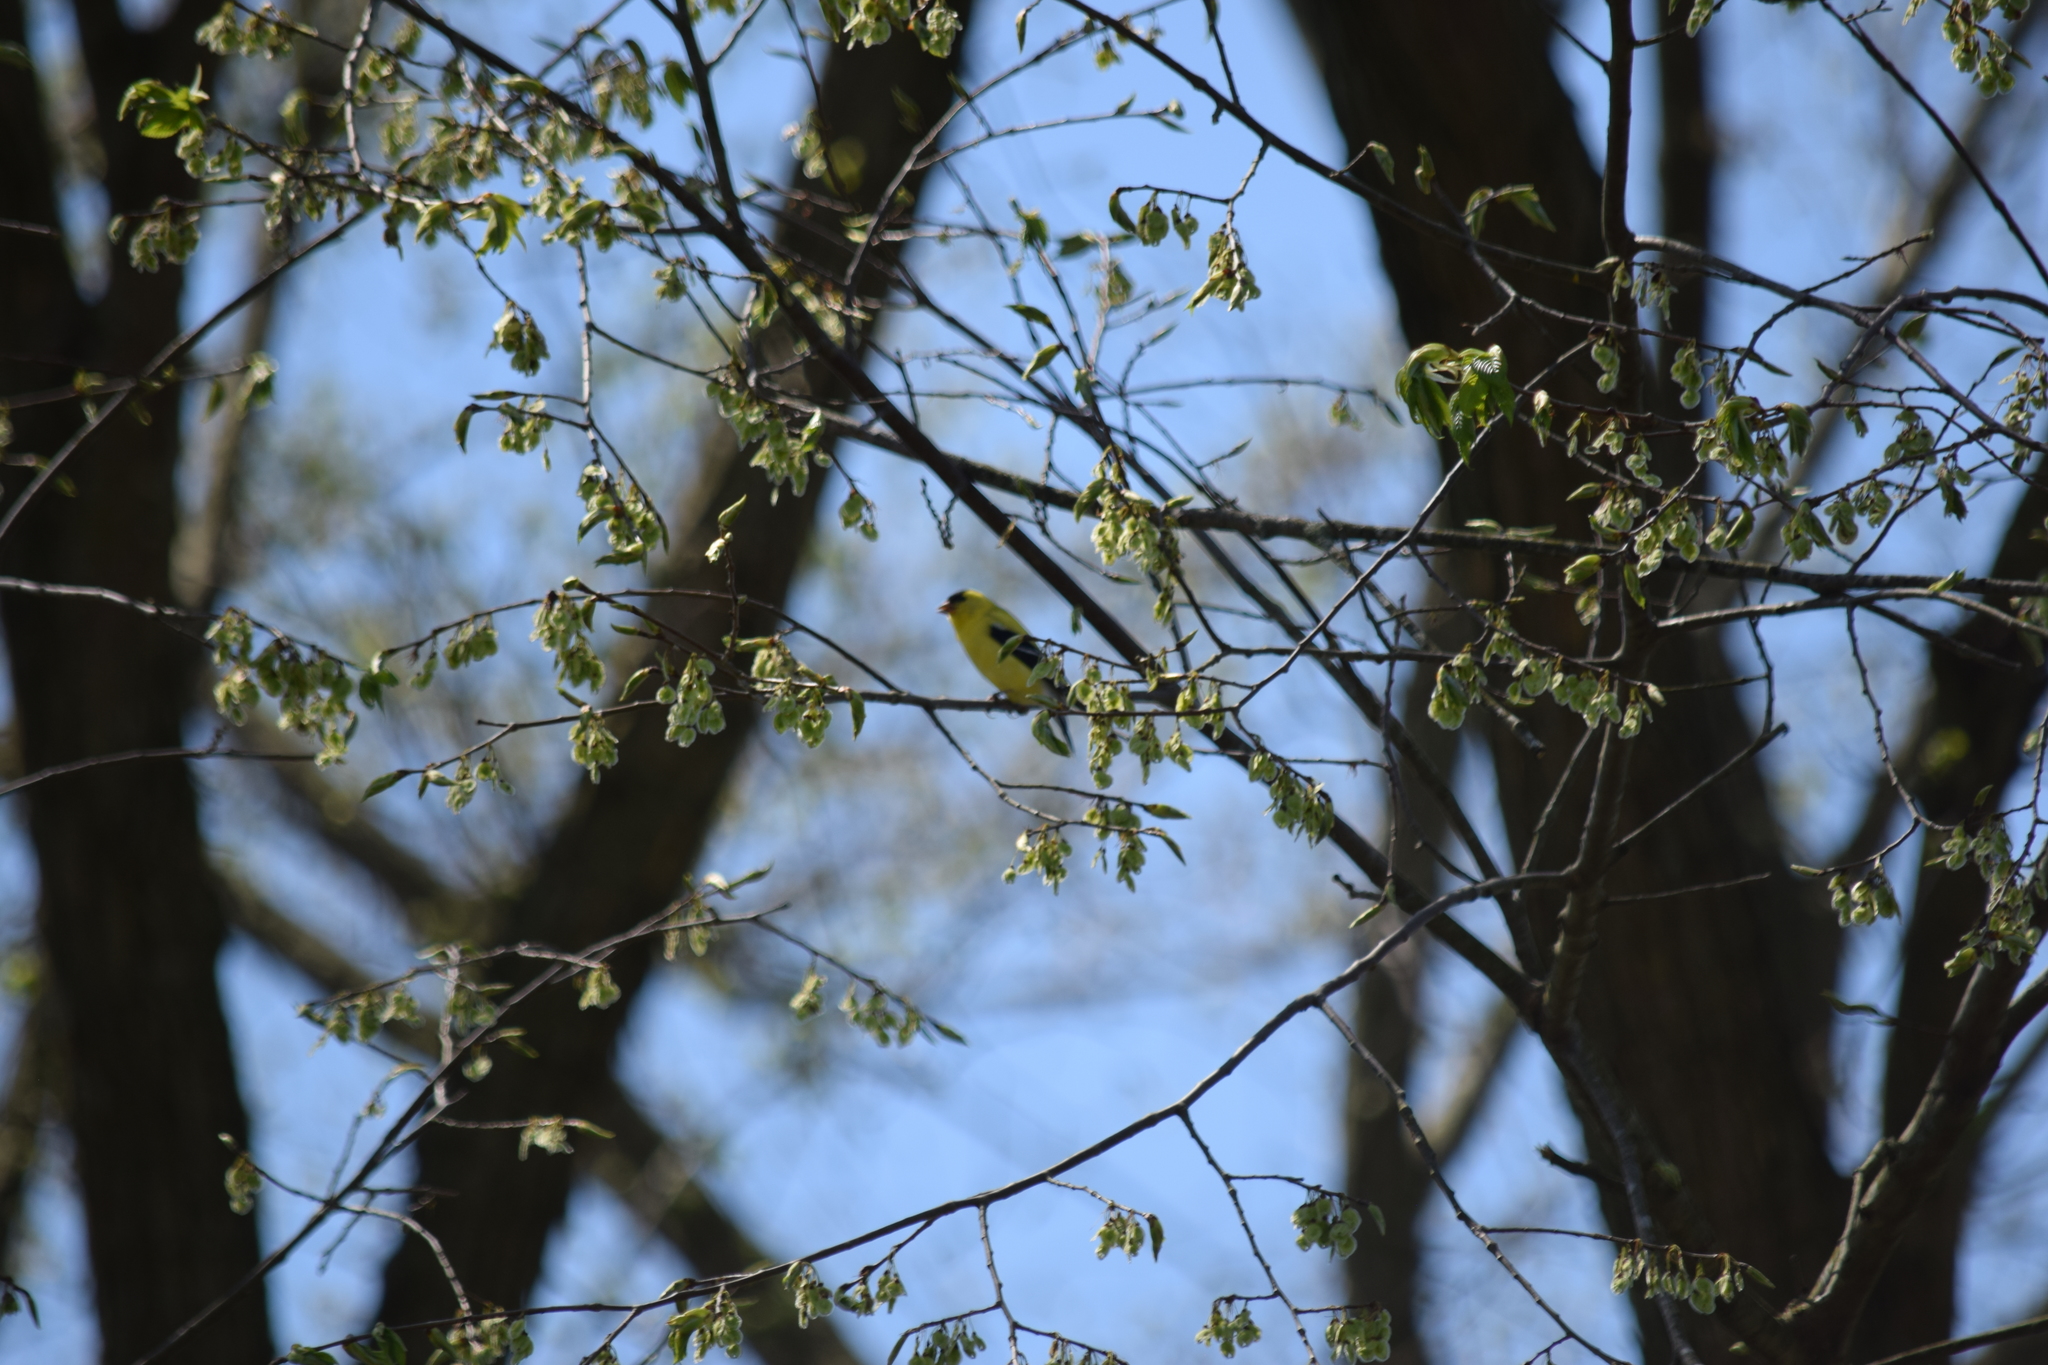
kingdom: Animalia
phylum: Chordata
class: Aves
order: Passeriformes
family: Fringillidae
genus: Spinus
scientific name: Spinus tristis
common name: American goldfinch
